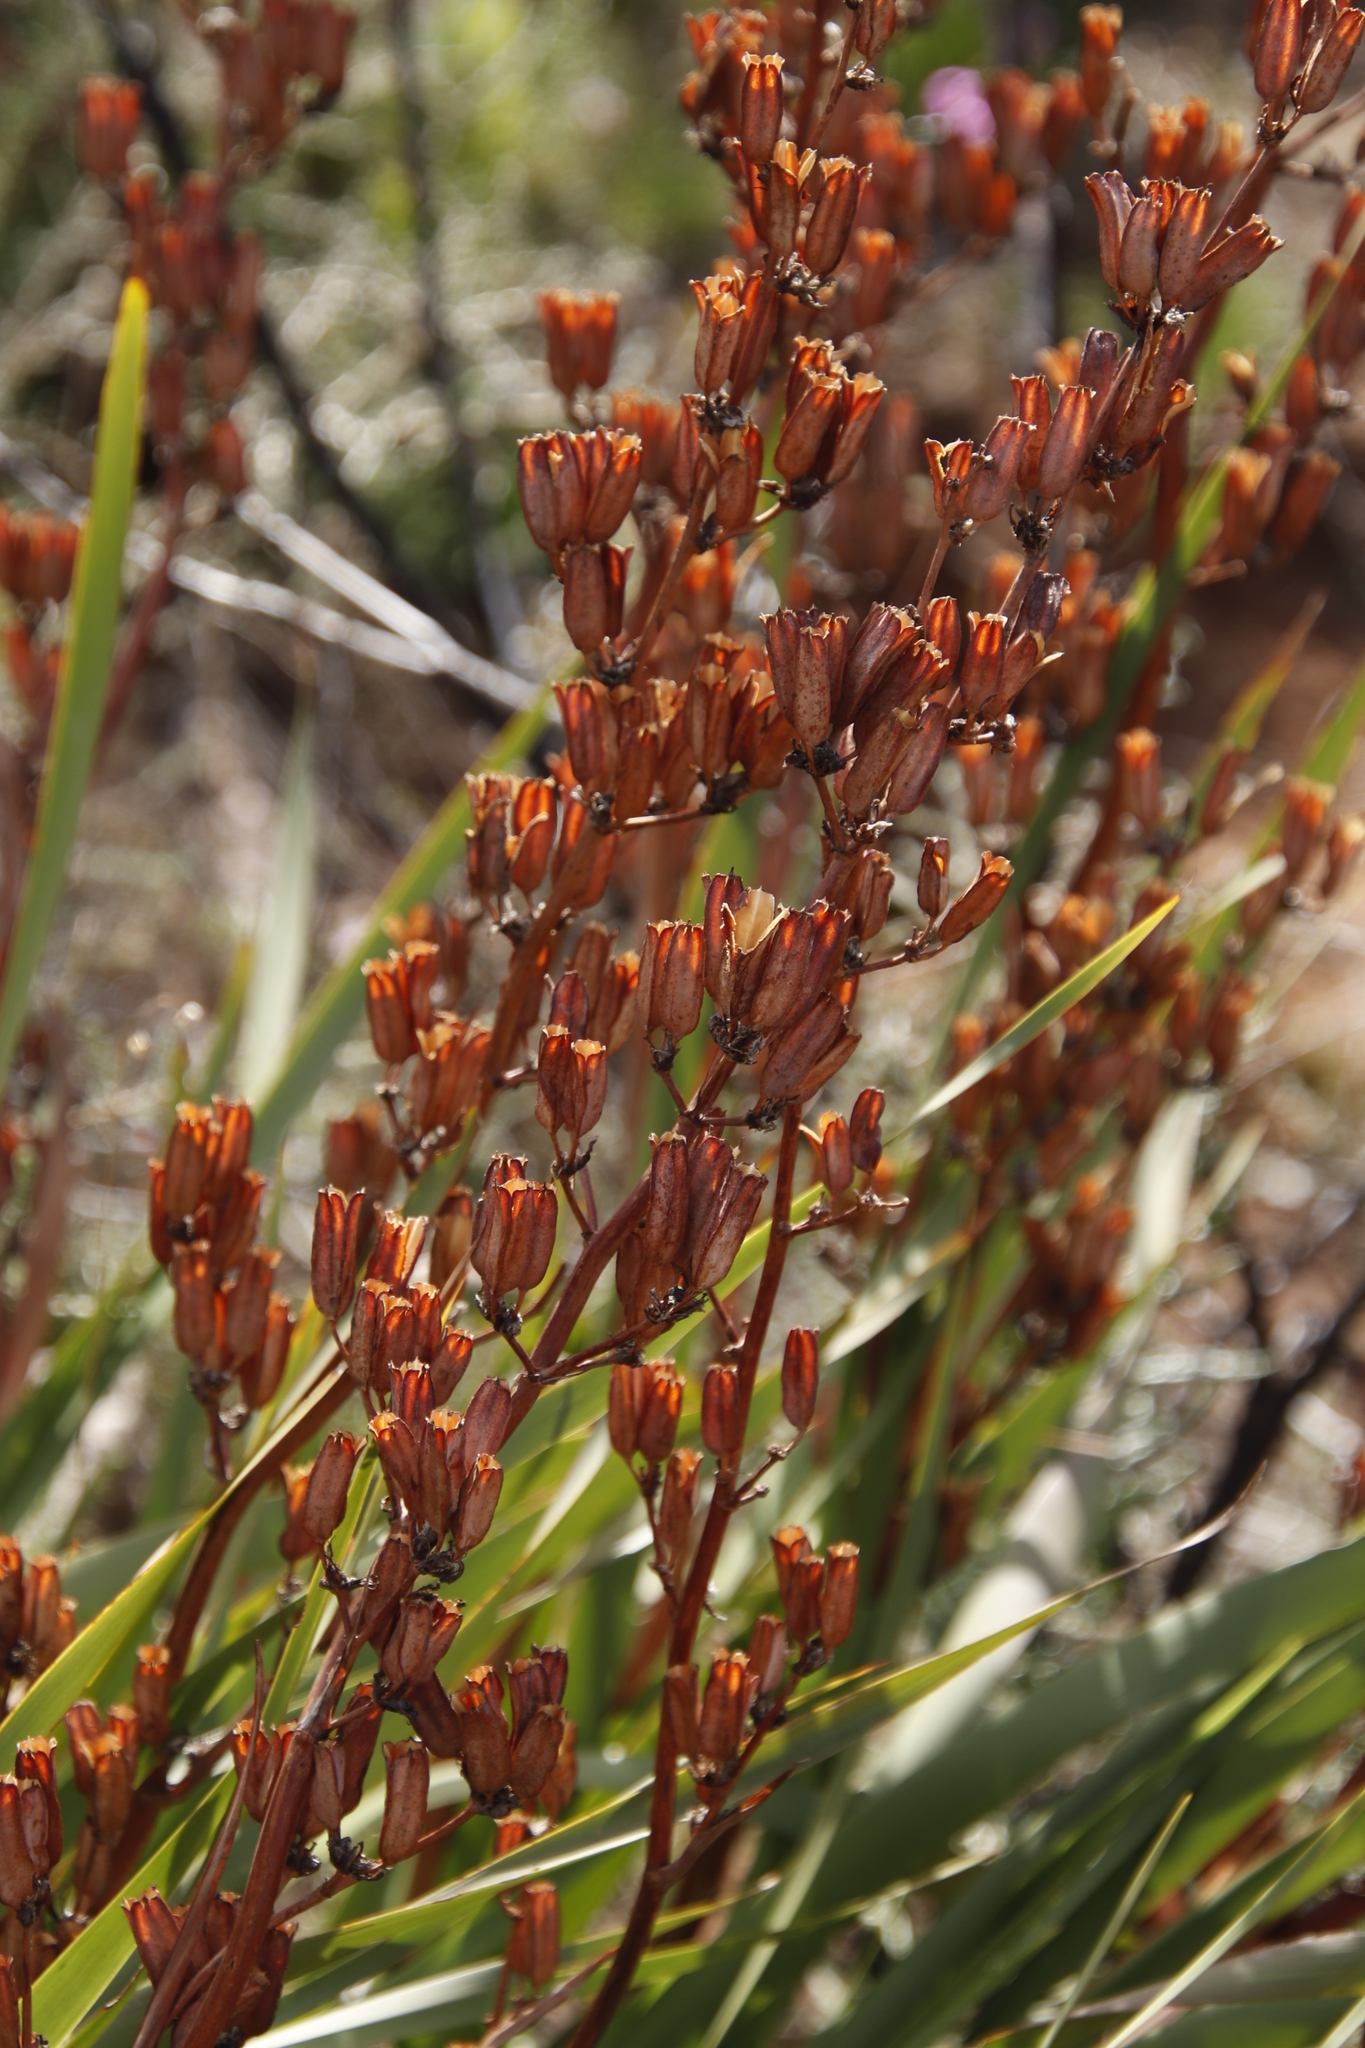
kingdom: Plantae
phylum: Tracheophyta
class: Liliopsida
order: Asparagales
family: Iridaceae
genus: Aristea
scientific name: Aristea bakeri
